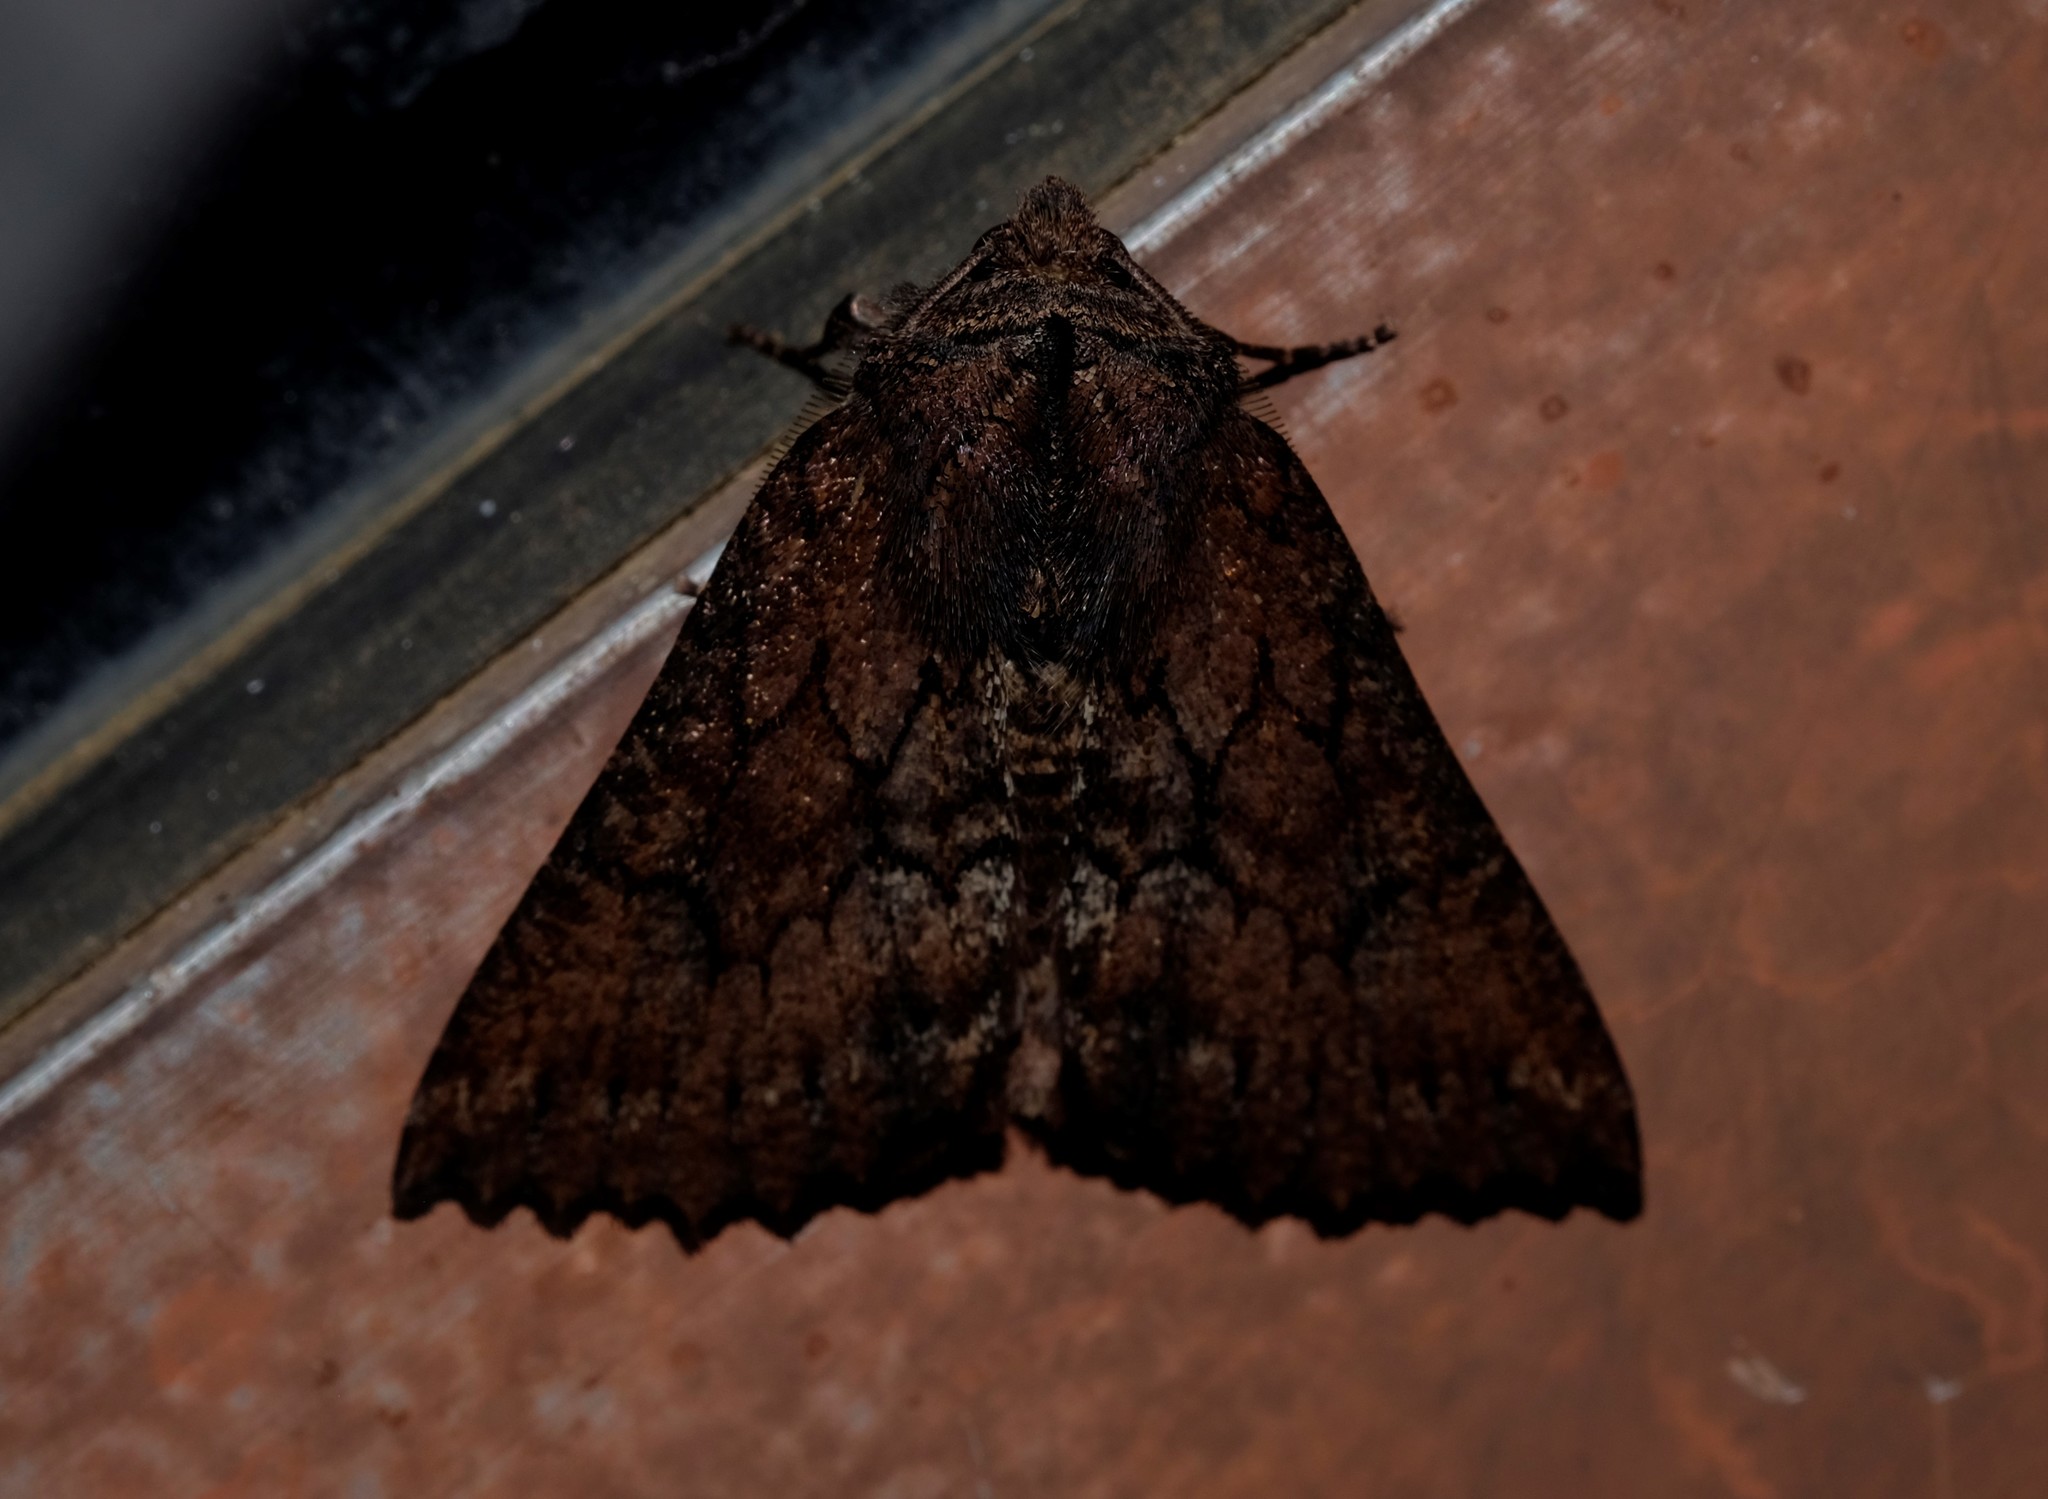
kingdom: Animalia
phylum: Arthropoda
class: Insecta
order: Lepidoptera
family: Geometridae
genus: Nisista
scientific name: Nisista serrata
